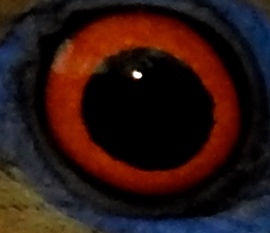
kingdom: Animalia
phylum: Chordata
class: Aves
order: Columbiformes
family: Columbidae
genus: Zenaida
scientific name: Zenaida asiatica
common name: White-winged dove
